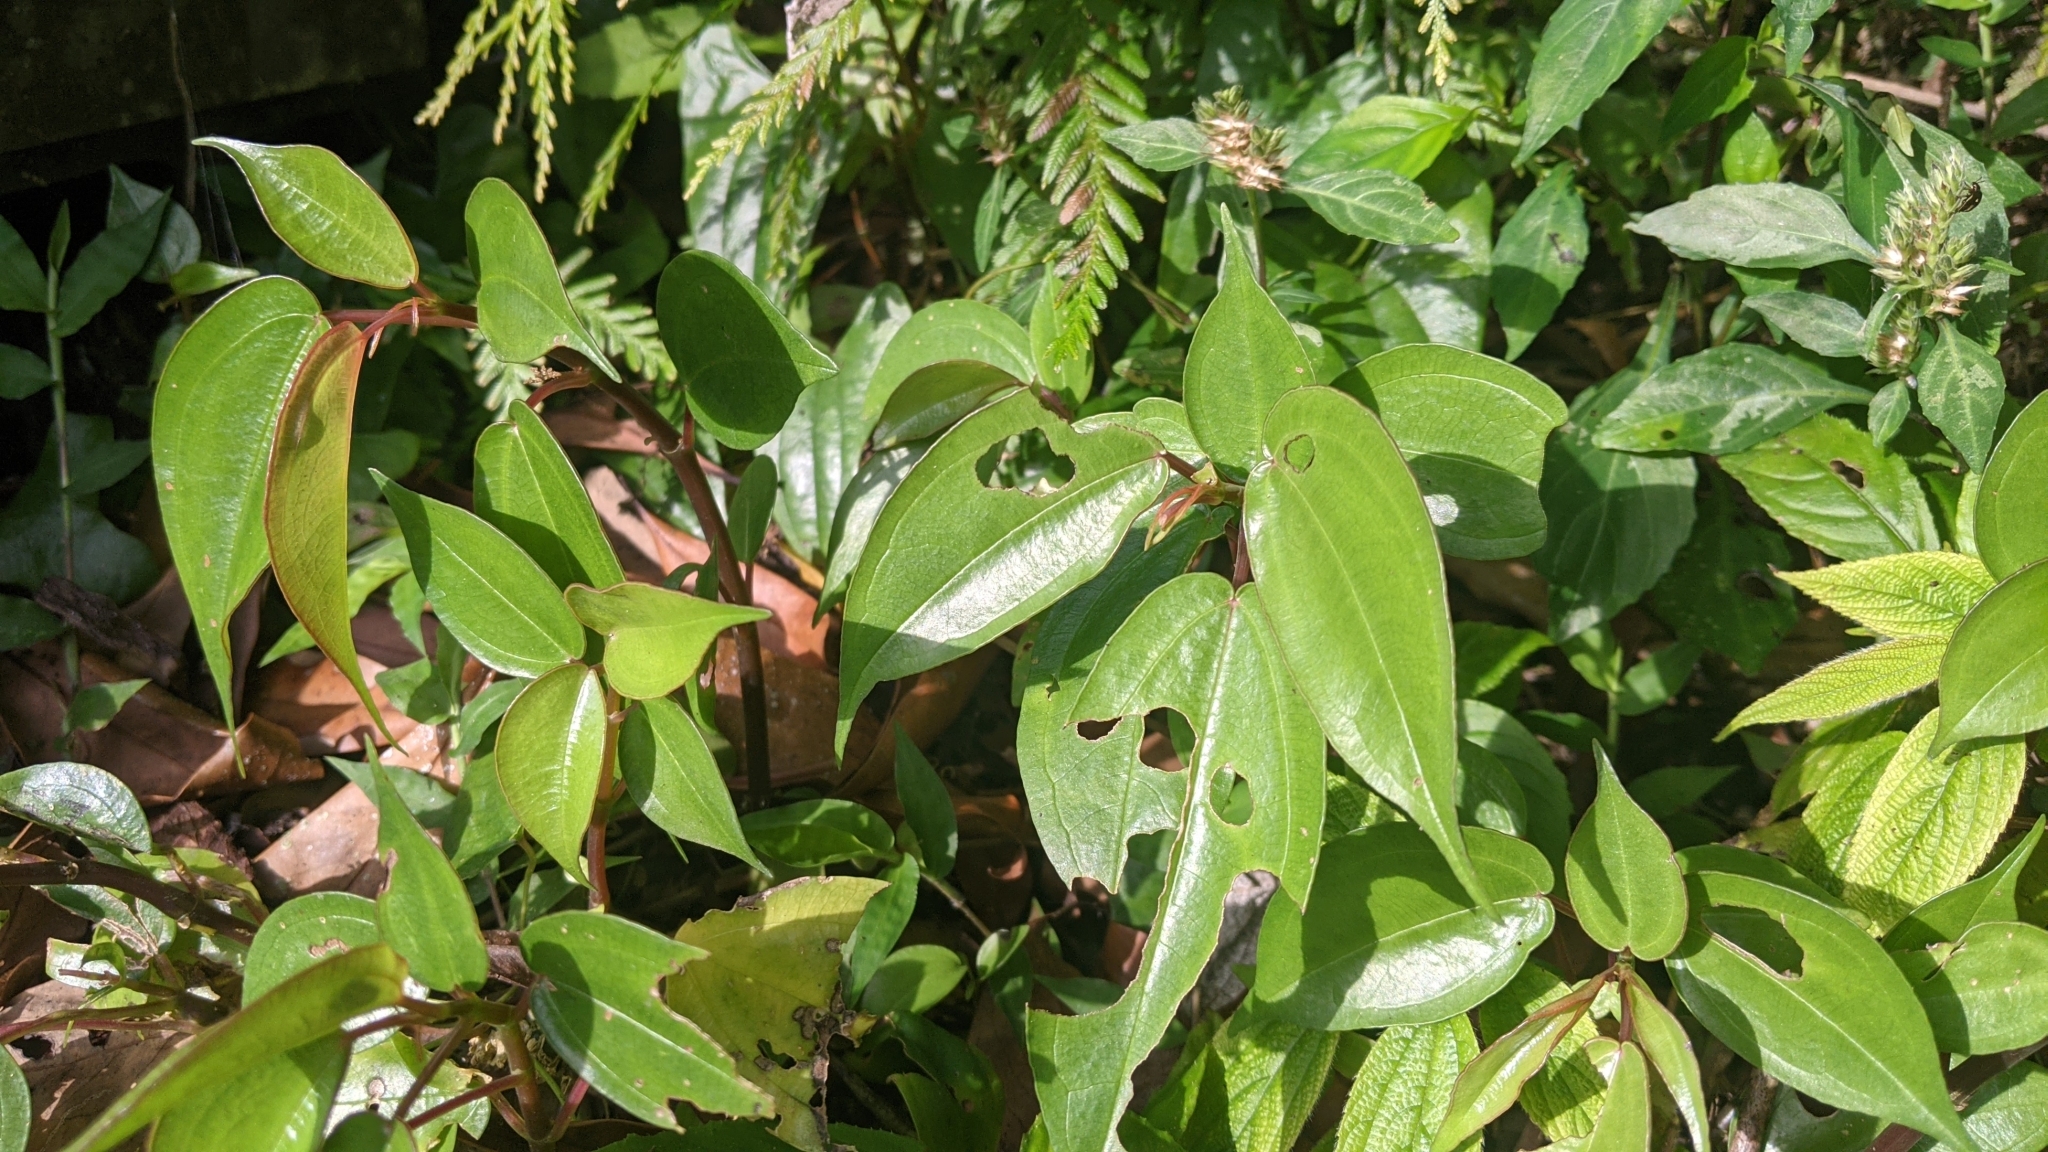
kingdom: Plantae
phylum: Tracheophyta
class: Magnoliopsida
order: Rosales
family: Urticaceae
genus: Pilea
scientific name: Pilea plataniflora
